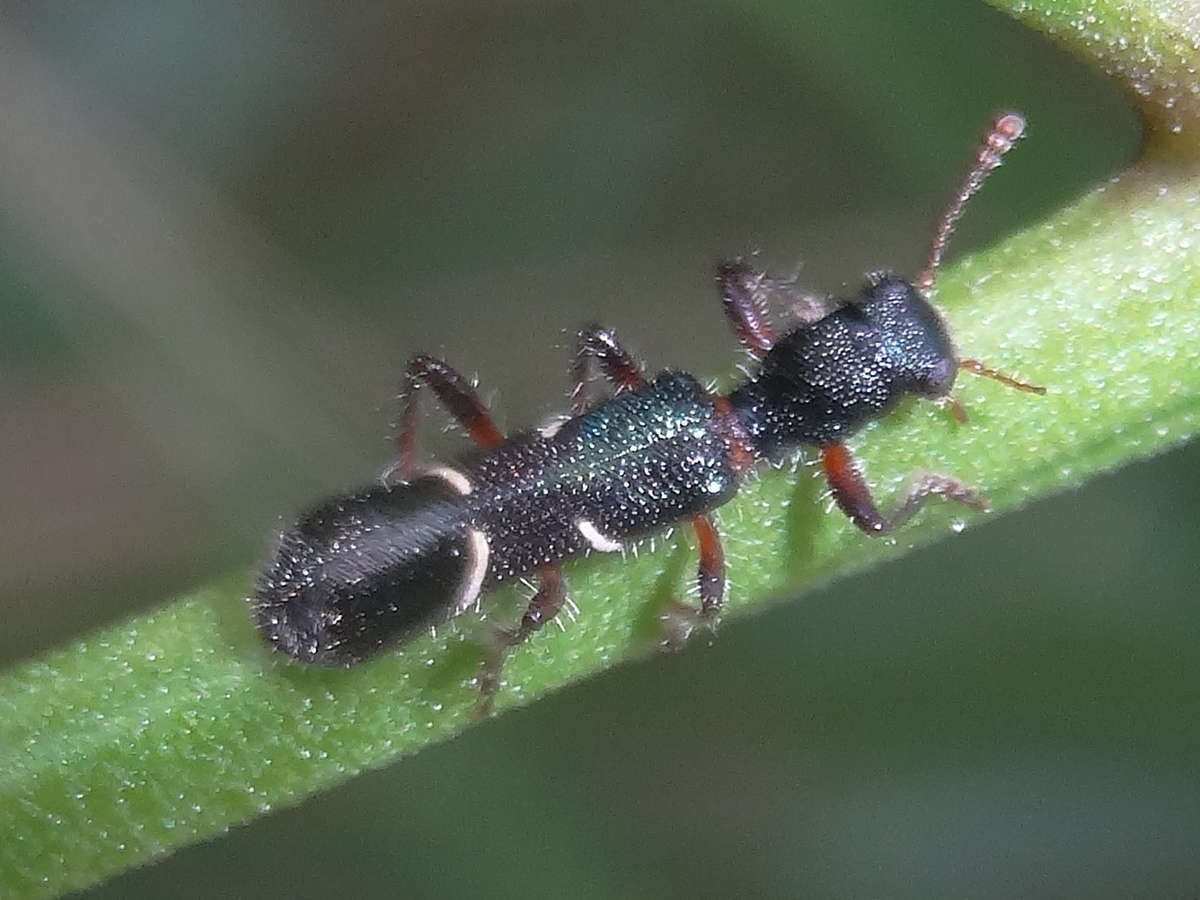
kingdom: Animalia
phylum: Arthropoda
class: Insecta
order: Coleoptera
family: Cleridae
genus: Tarsostenodes
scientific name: Tarsostenodes
